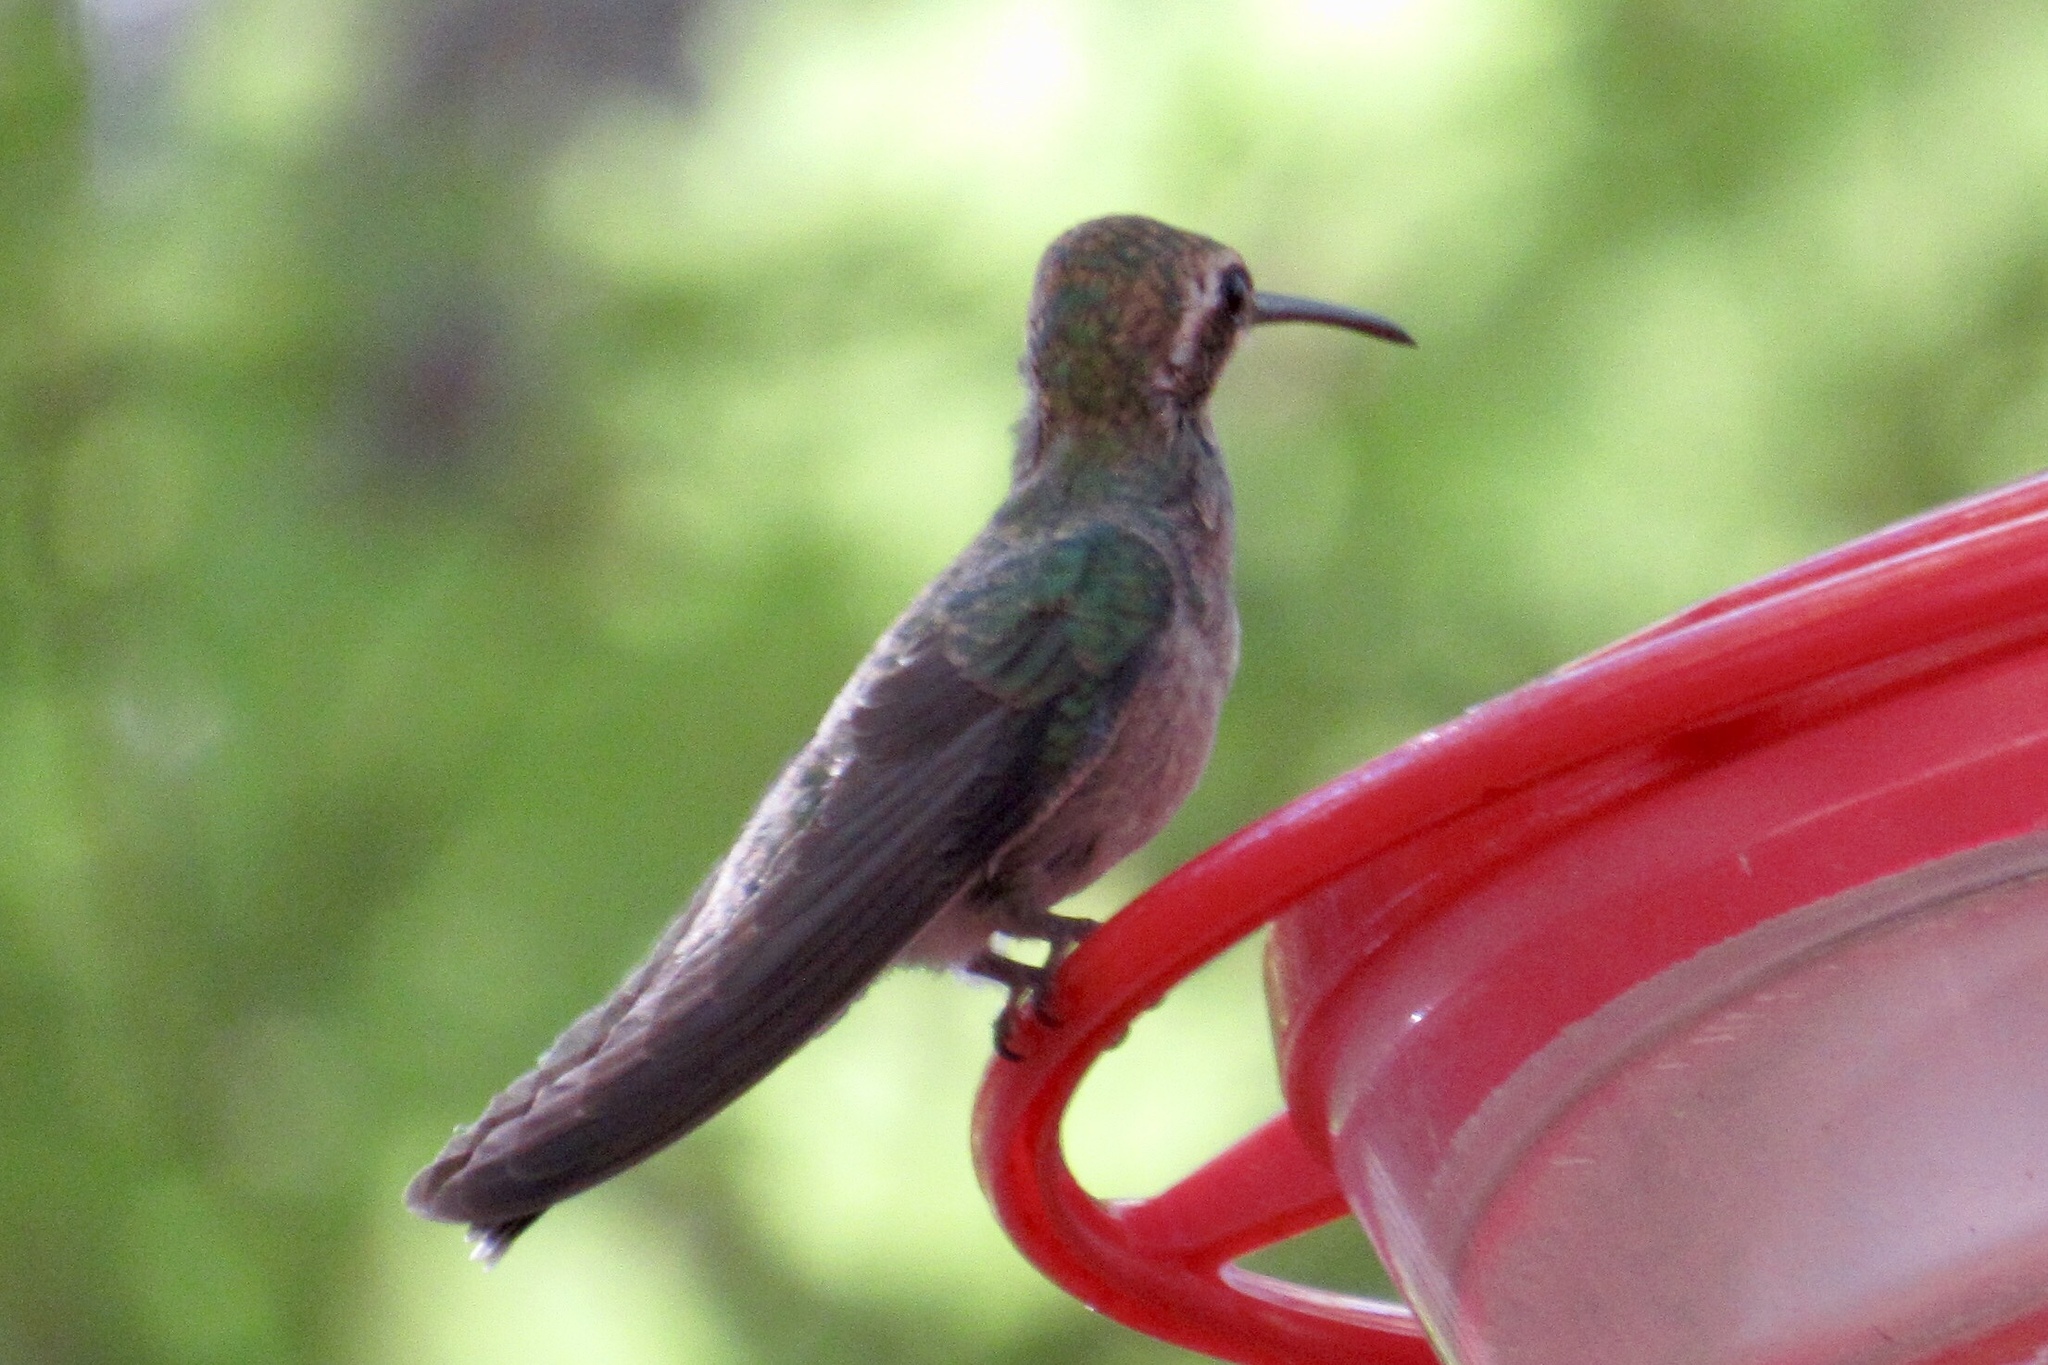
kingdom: Animalia
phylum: Chordata
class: Aves
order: Apodiformes
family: Trochilidae
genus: Cynanthus
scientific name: Cynanthus latirostris
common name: Broad-billed hummingbird
